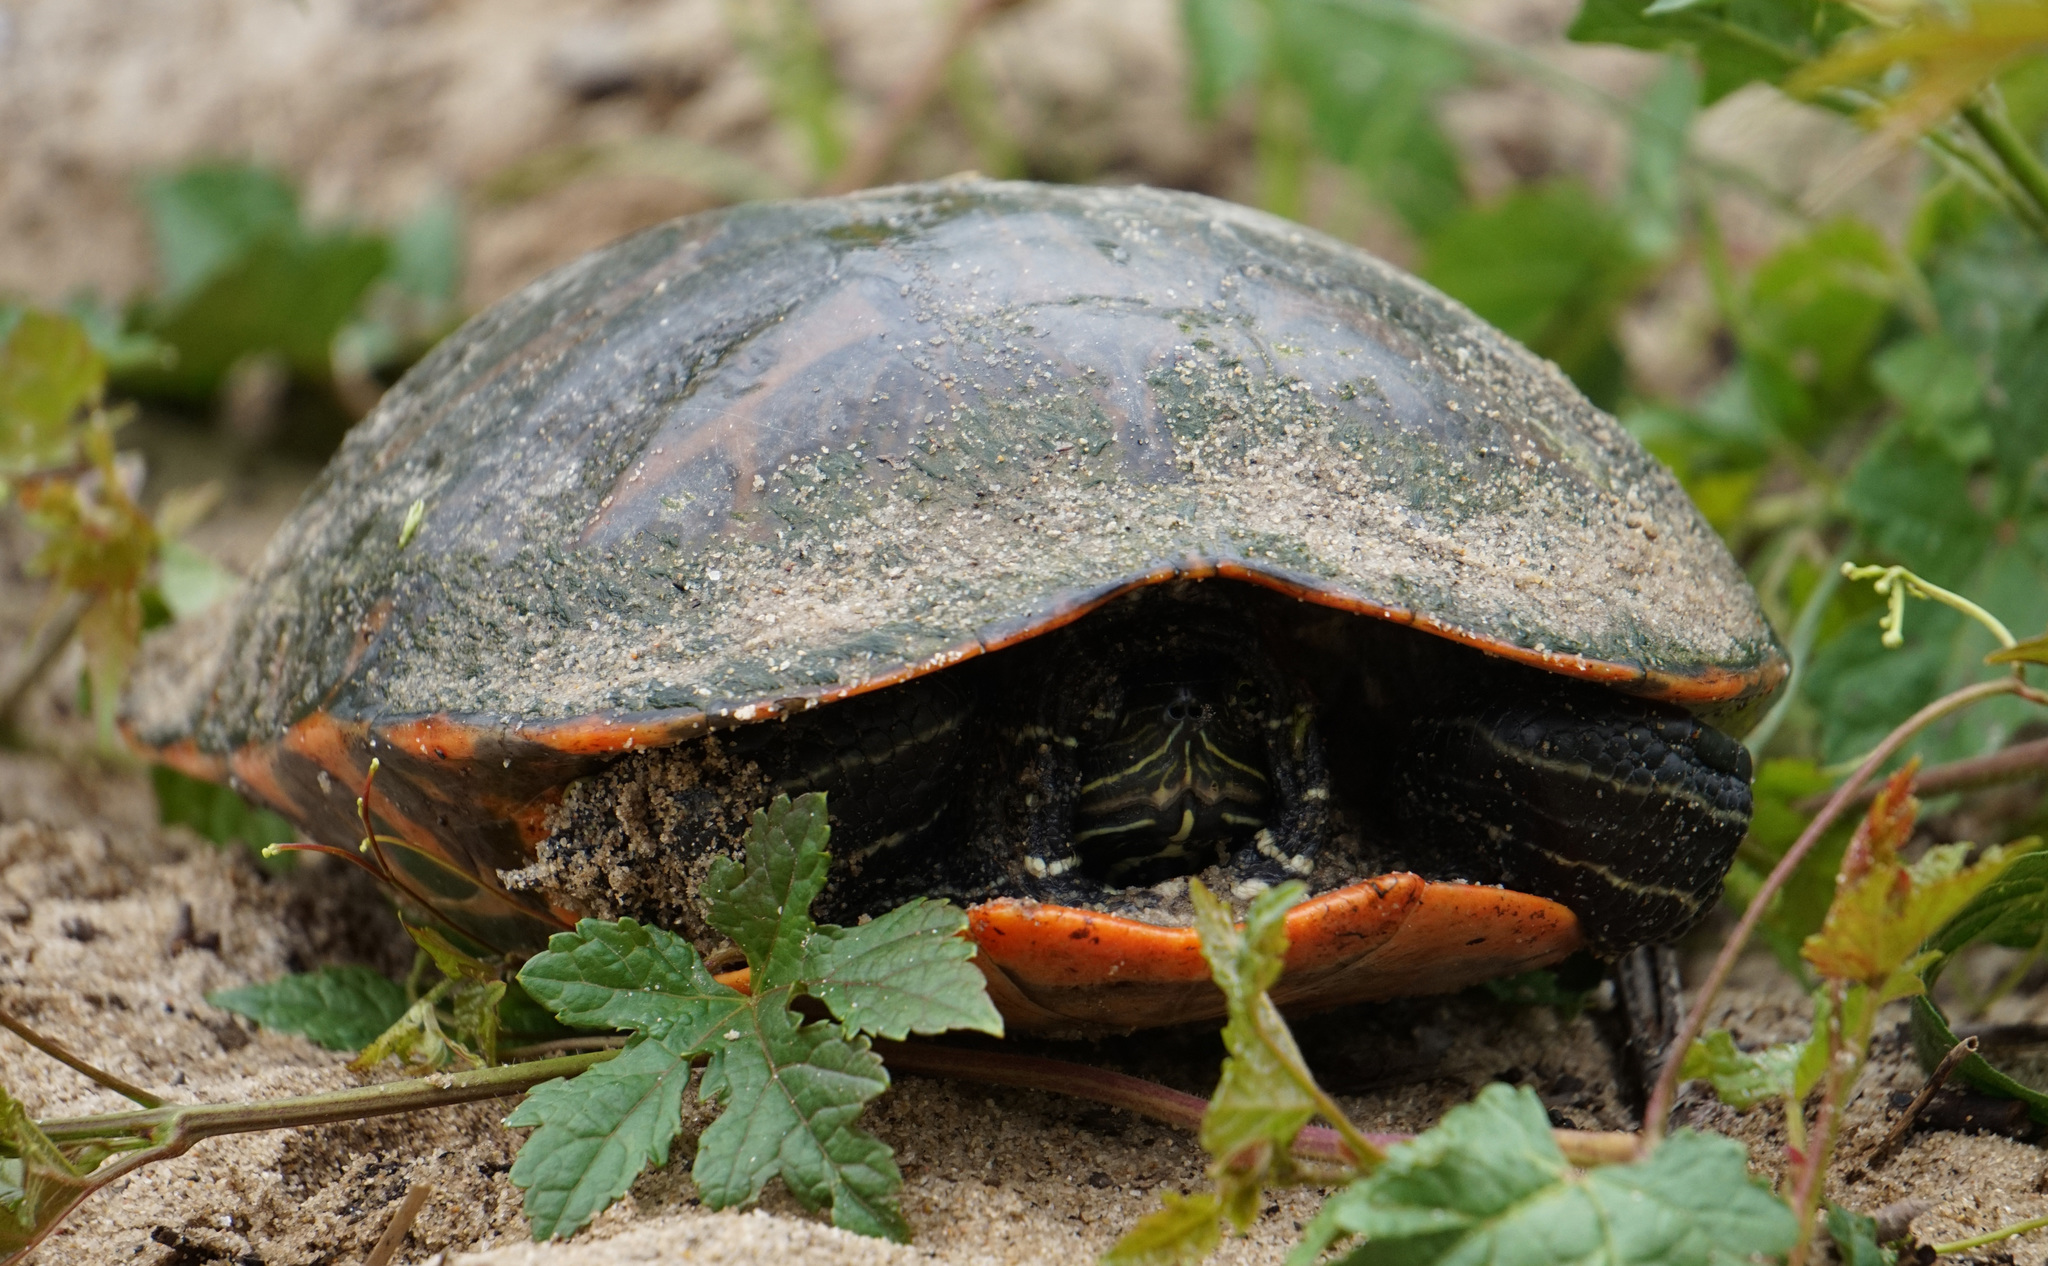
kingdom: Animalia
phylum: Chordata
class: Testudines
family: Emydidae
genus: Pseudemys
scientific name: Pseudemys rubriventris
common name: American red-bellied turtle
